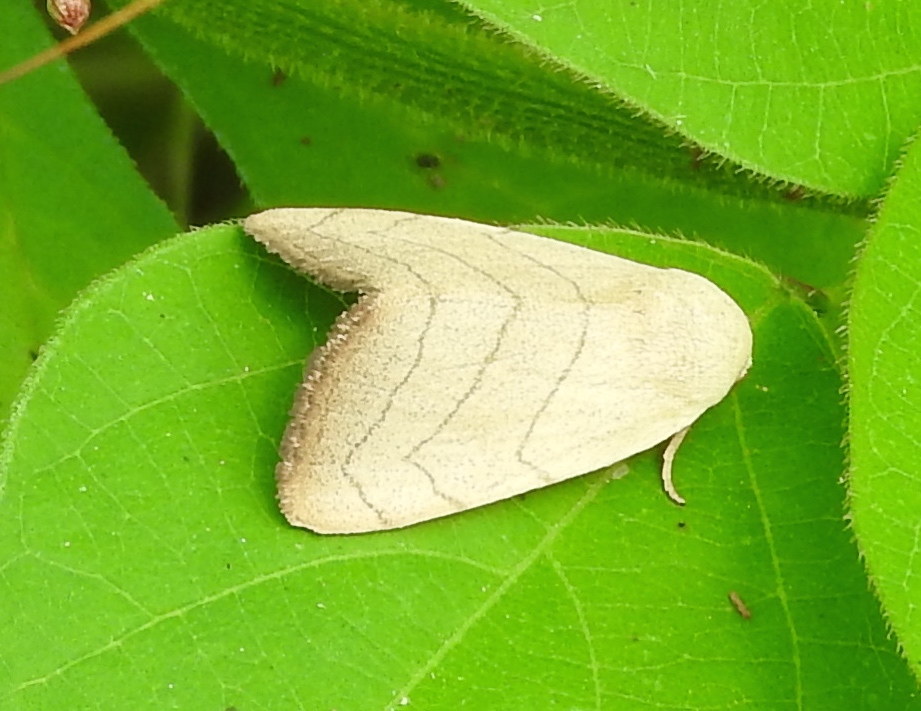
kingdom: Animalia
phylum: Arthropoda
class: Insecta
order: Lepidoptera
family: Noctuidae
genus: Bagisara
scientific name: Bagisara
